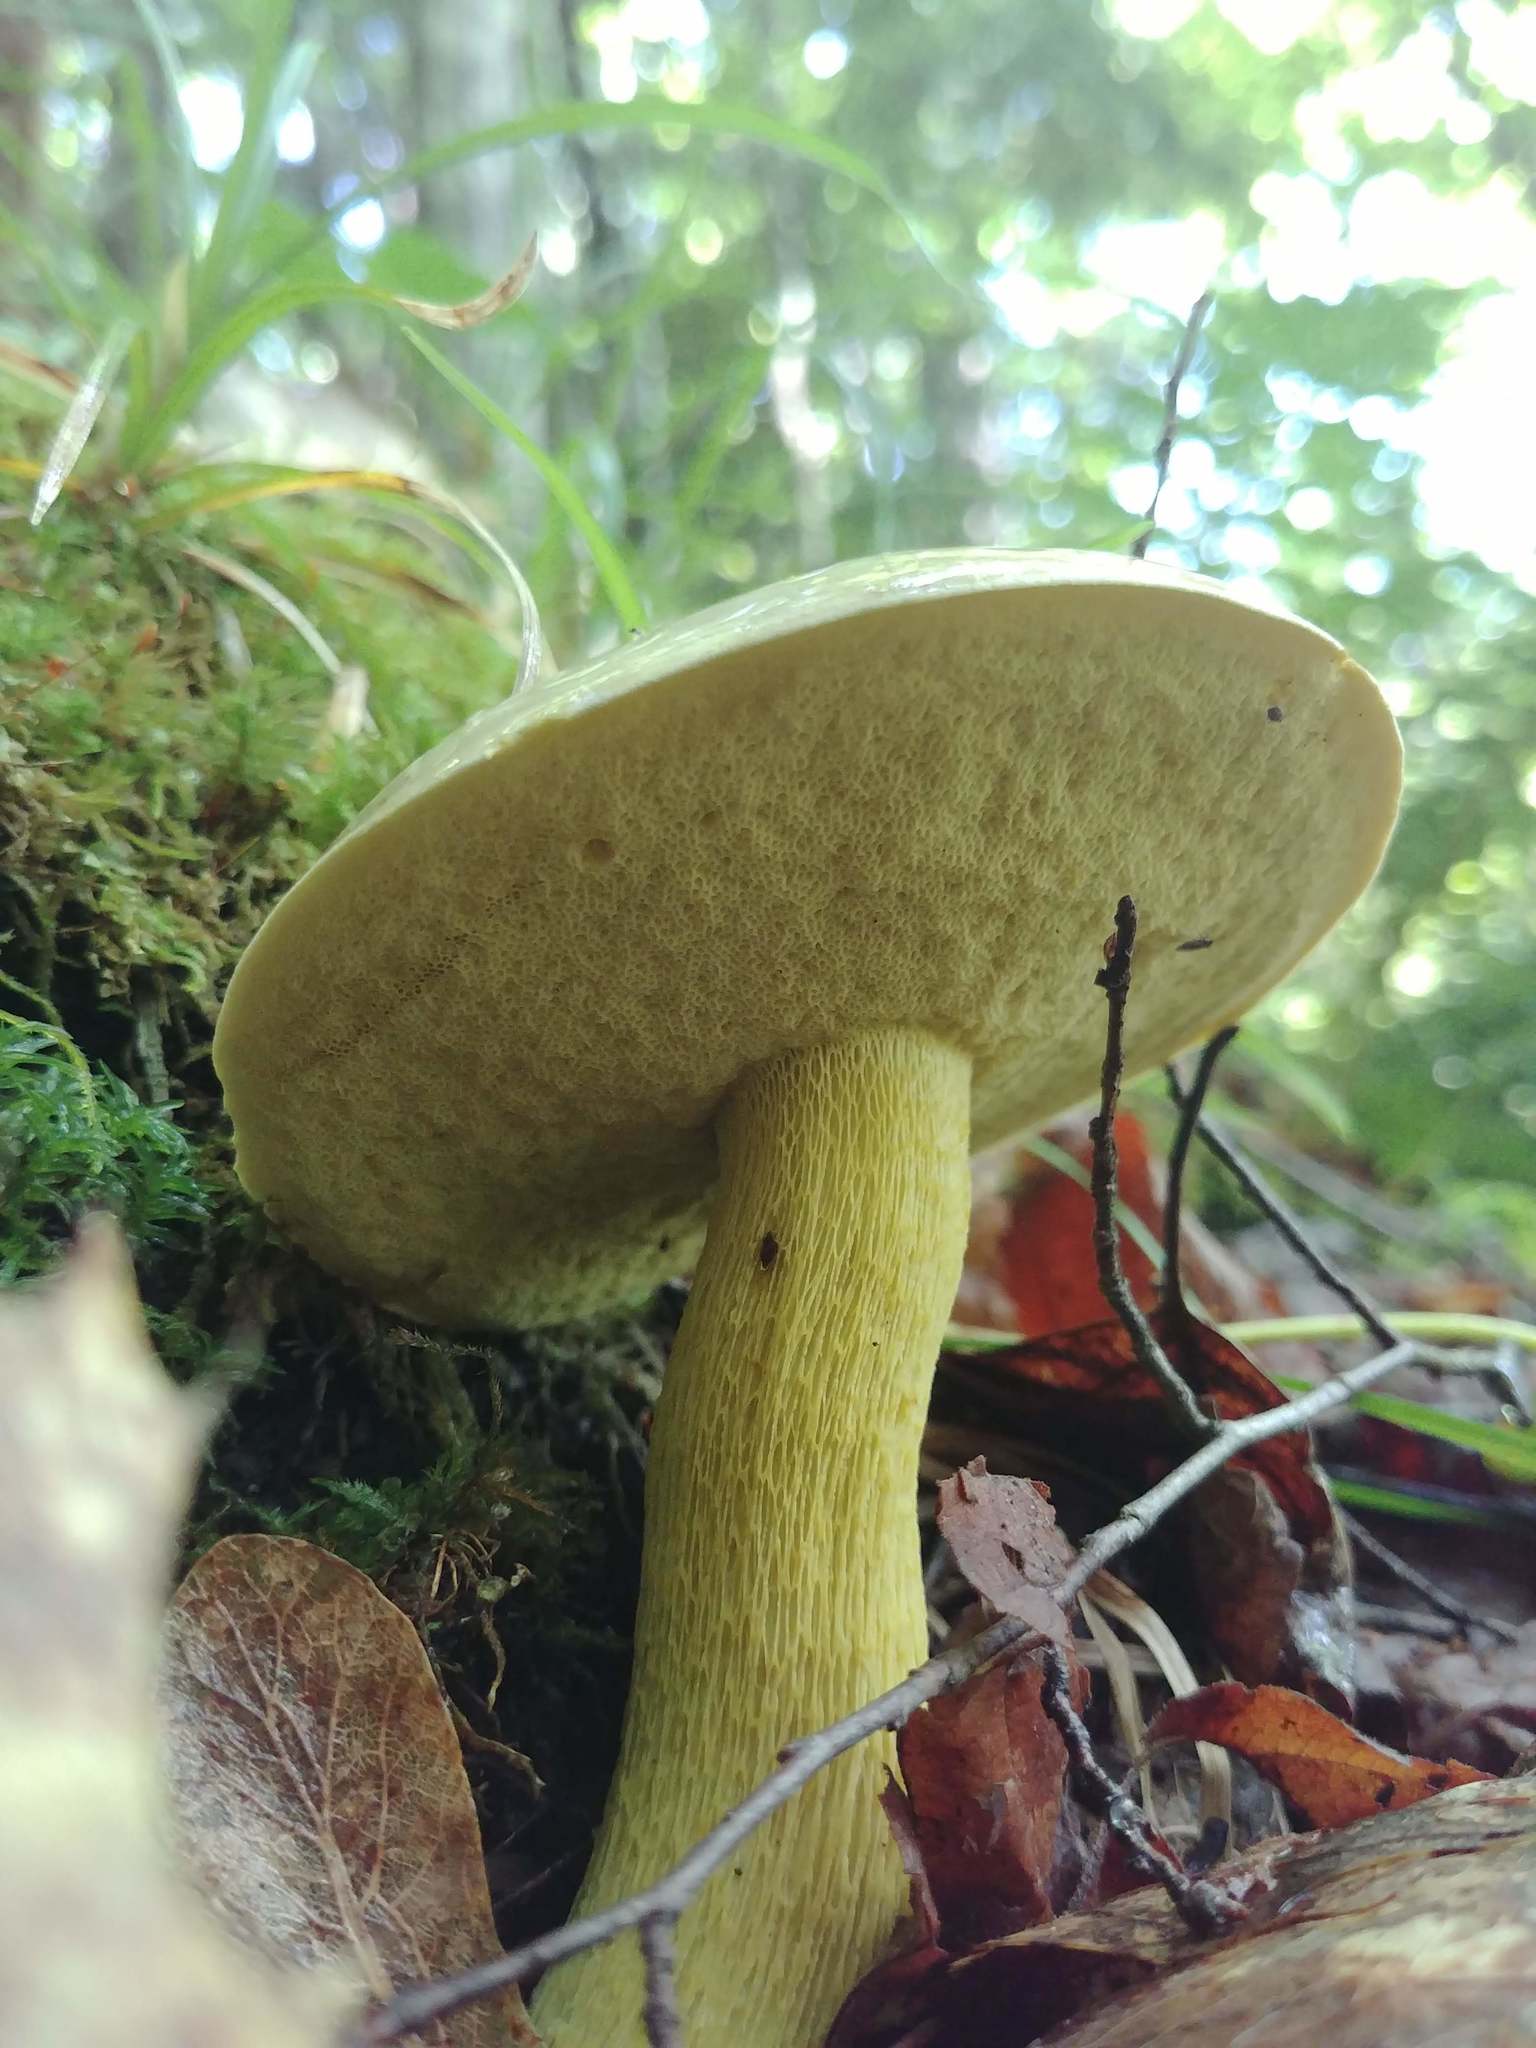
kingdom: Fungi
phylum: Basidiomycota
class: Agaricomycetes
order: Boletales
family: Boletaceae
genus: Retiboletus
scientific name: Retiboletus ornatipes
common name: Ornate-stalked bolete
